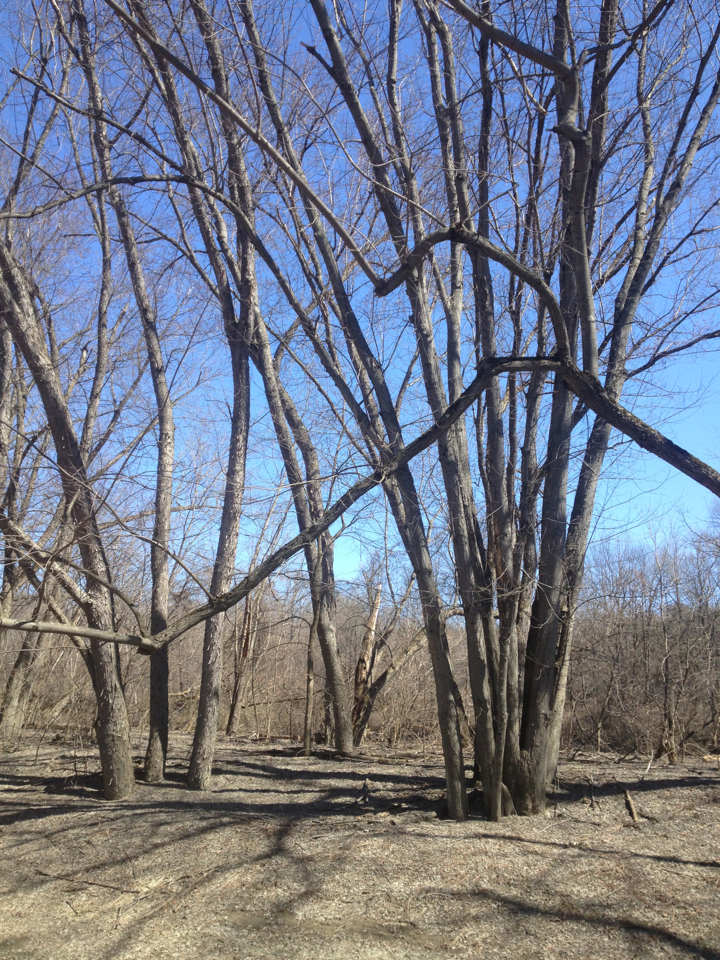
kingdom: Plantae
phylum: Tracheophyta
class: Magnoliopsida
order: Sapindales
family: Sapindaceae
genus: Acer
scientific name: Acer saccharinum
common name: Silver maple
